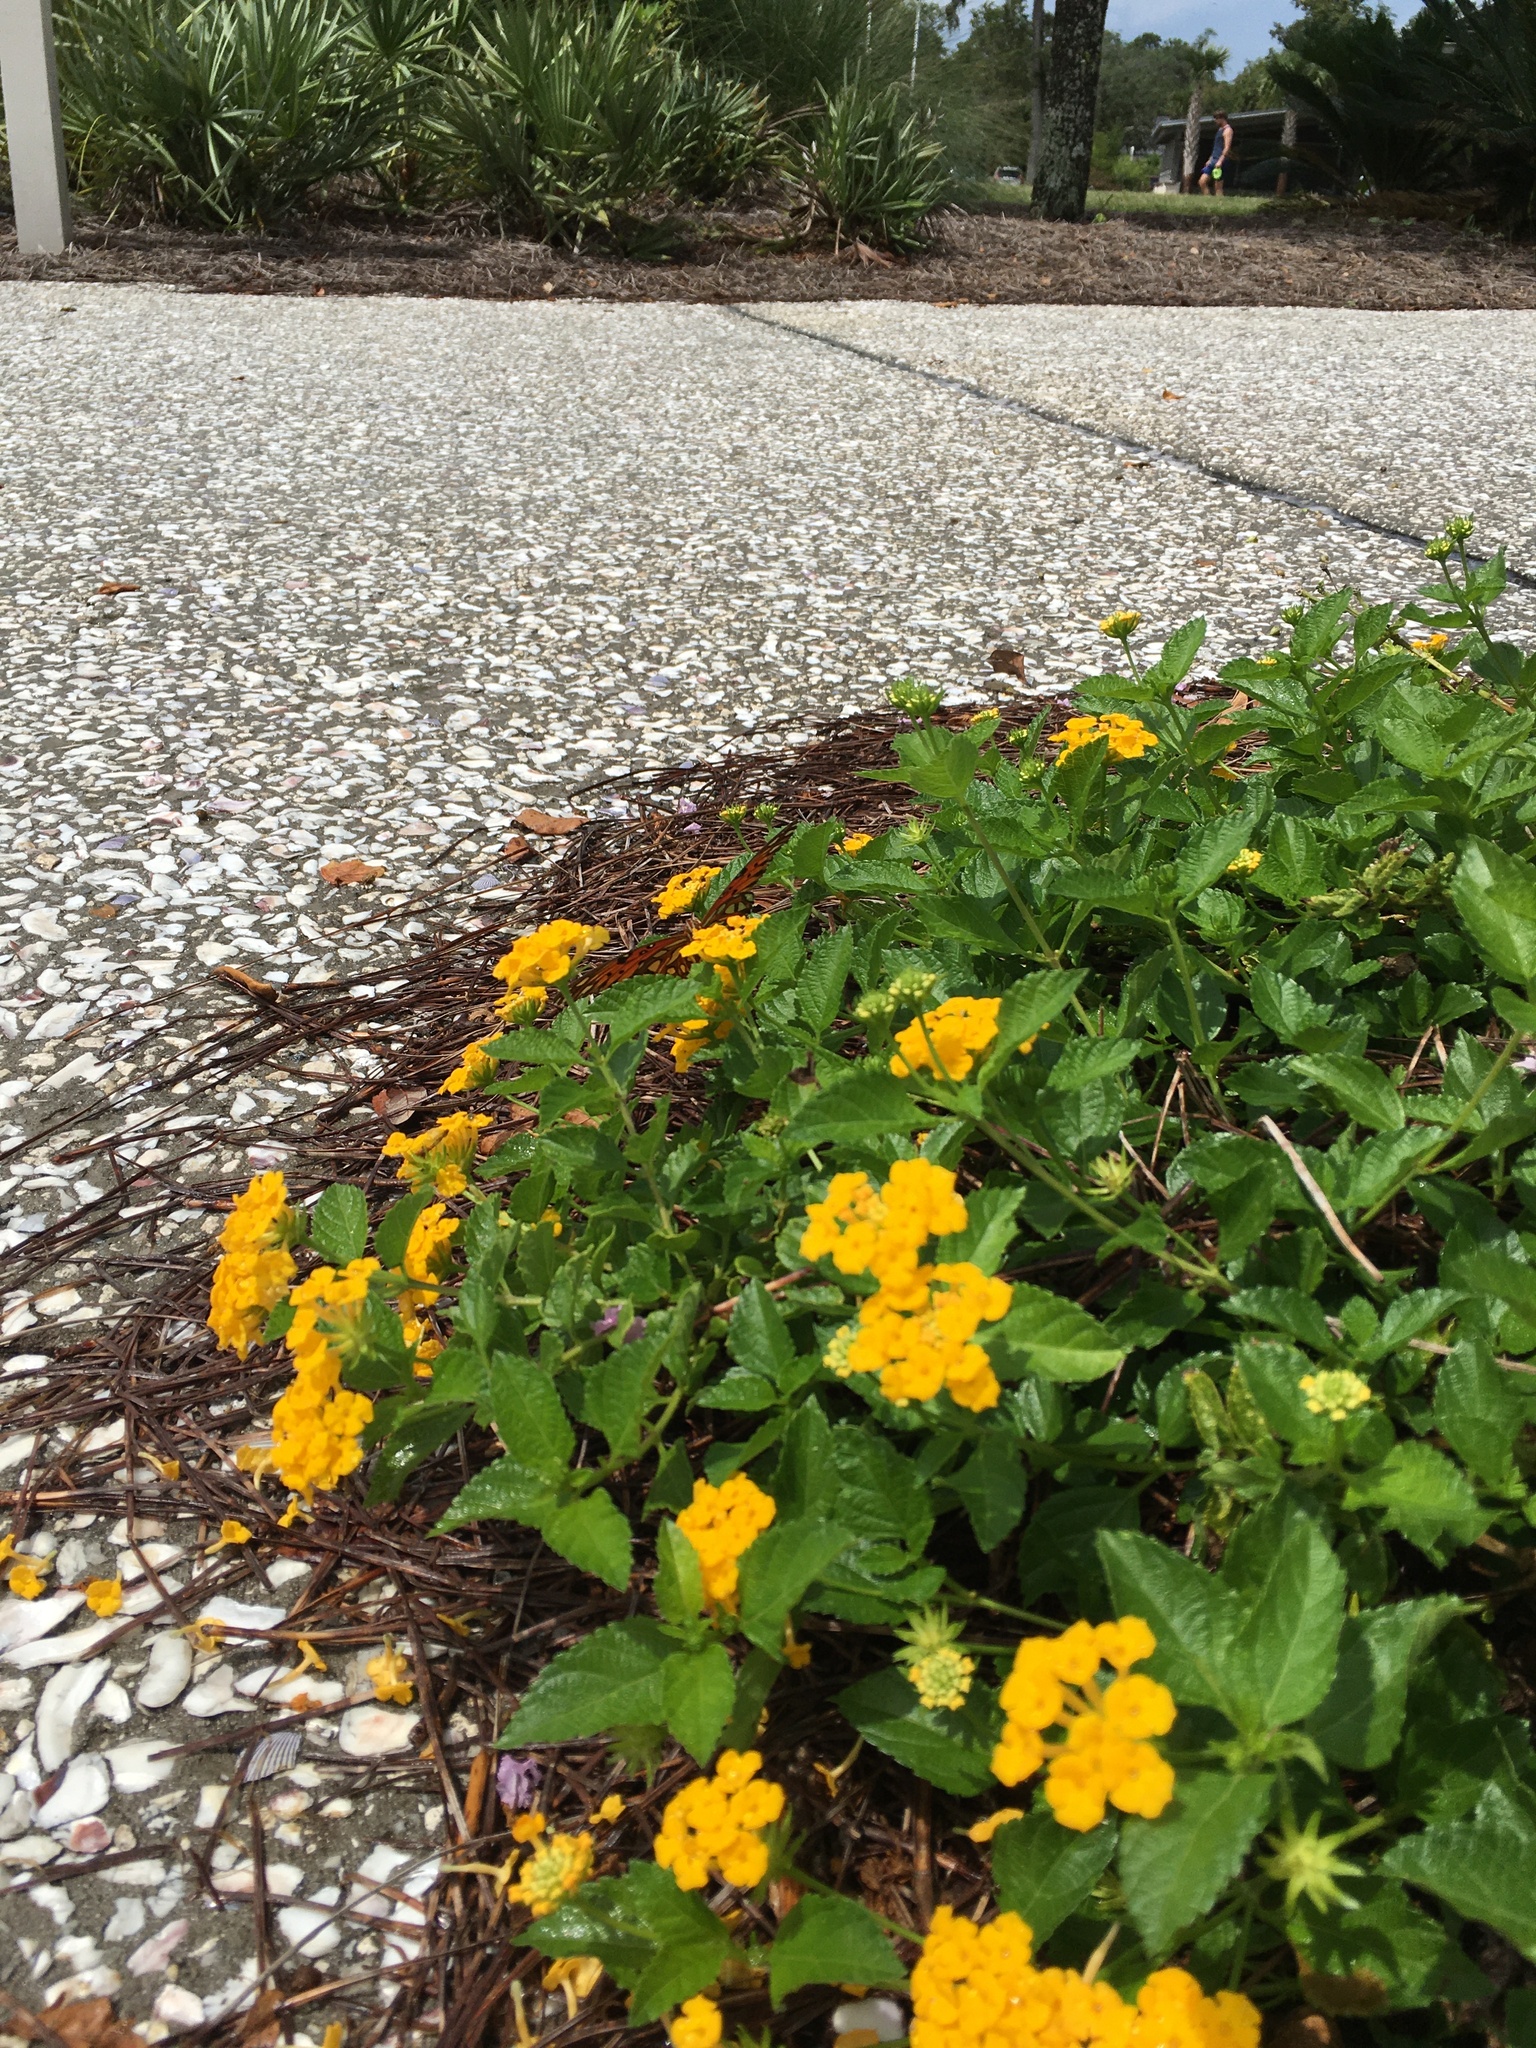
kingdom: Animalia
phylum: Arthropoda
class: Insecta
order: Lepidoptera
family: Nymphalidae
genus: Dione
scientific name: Dione vanillae
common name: Gulf fritillary
